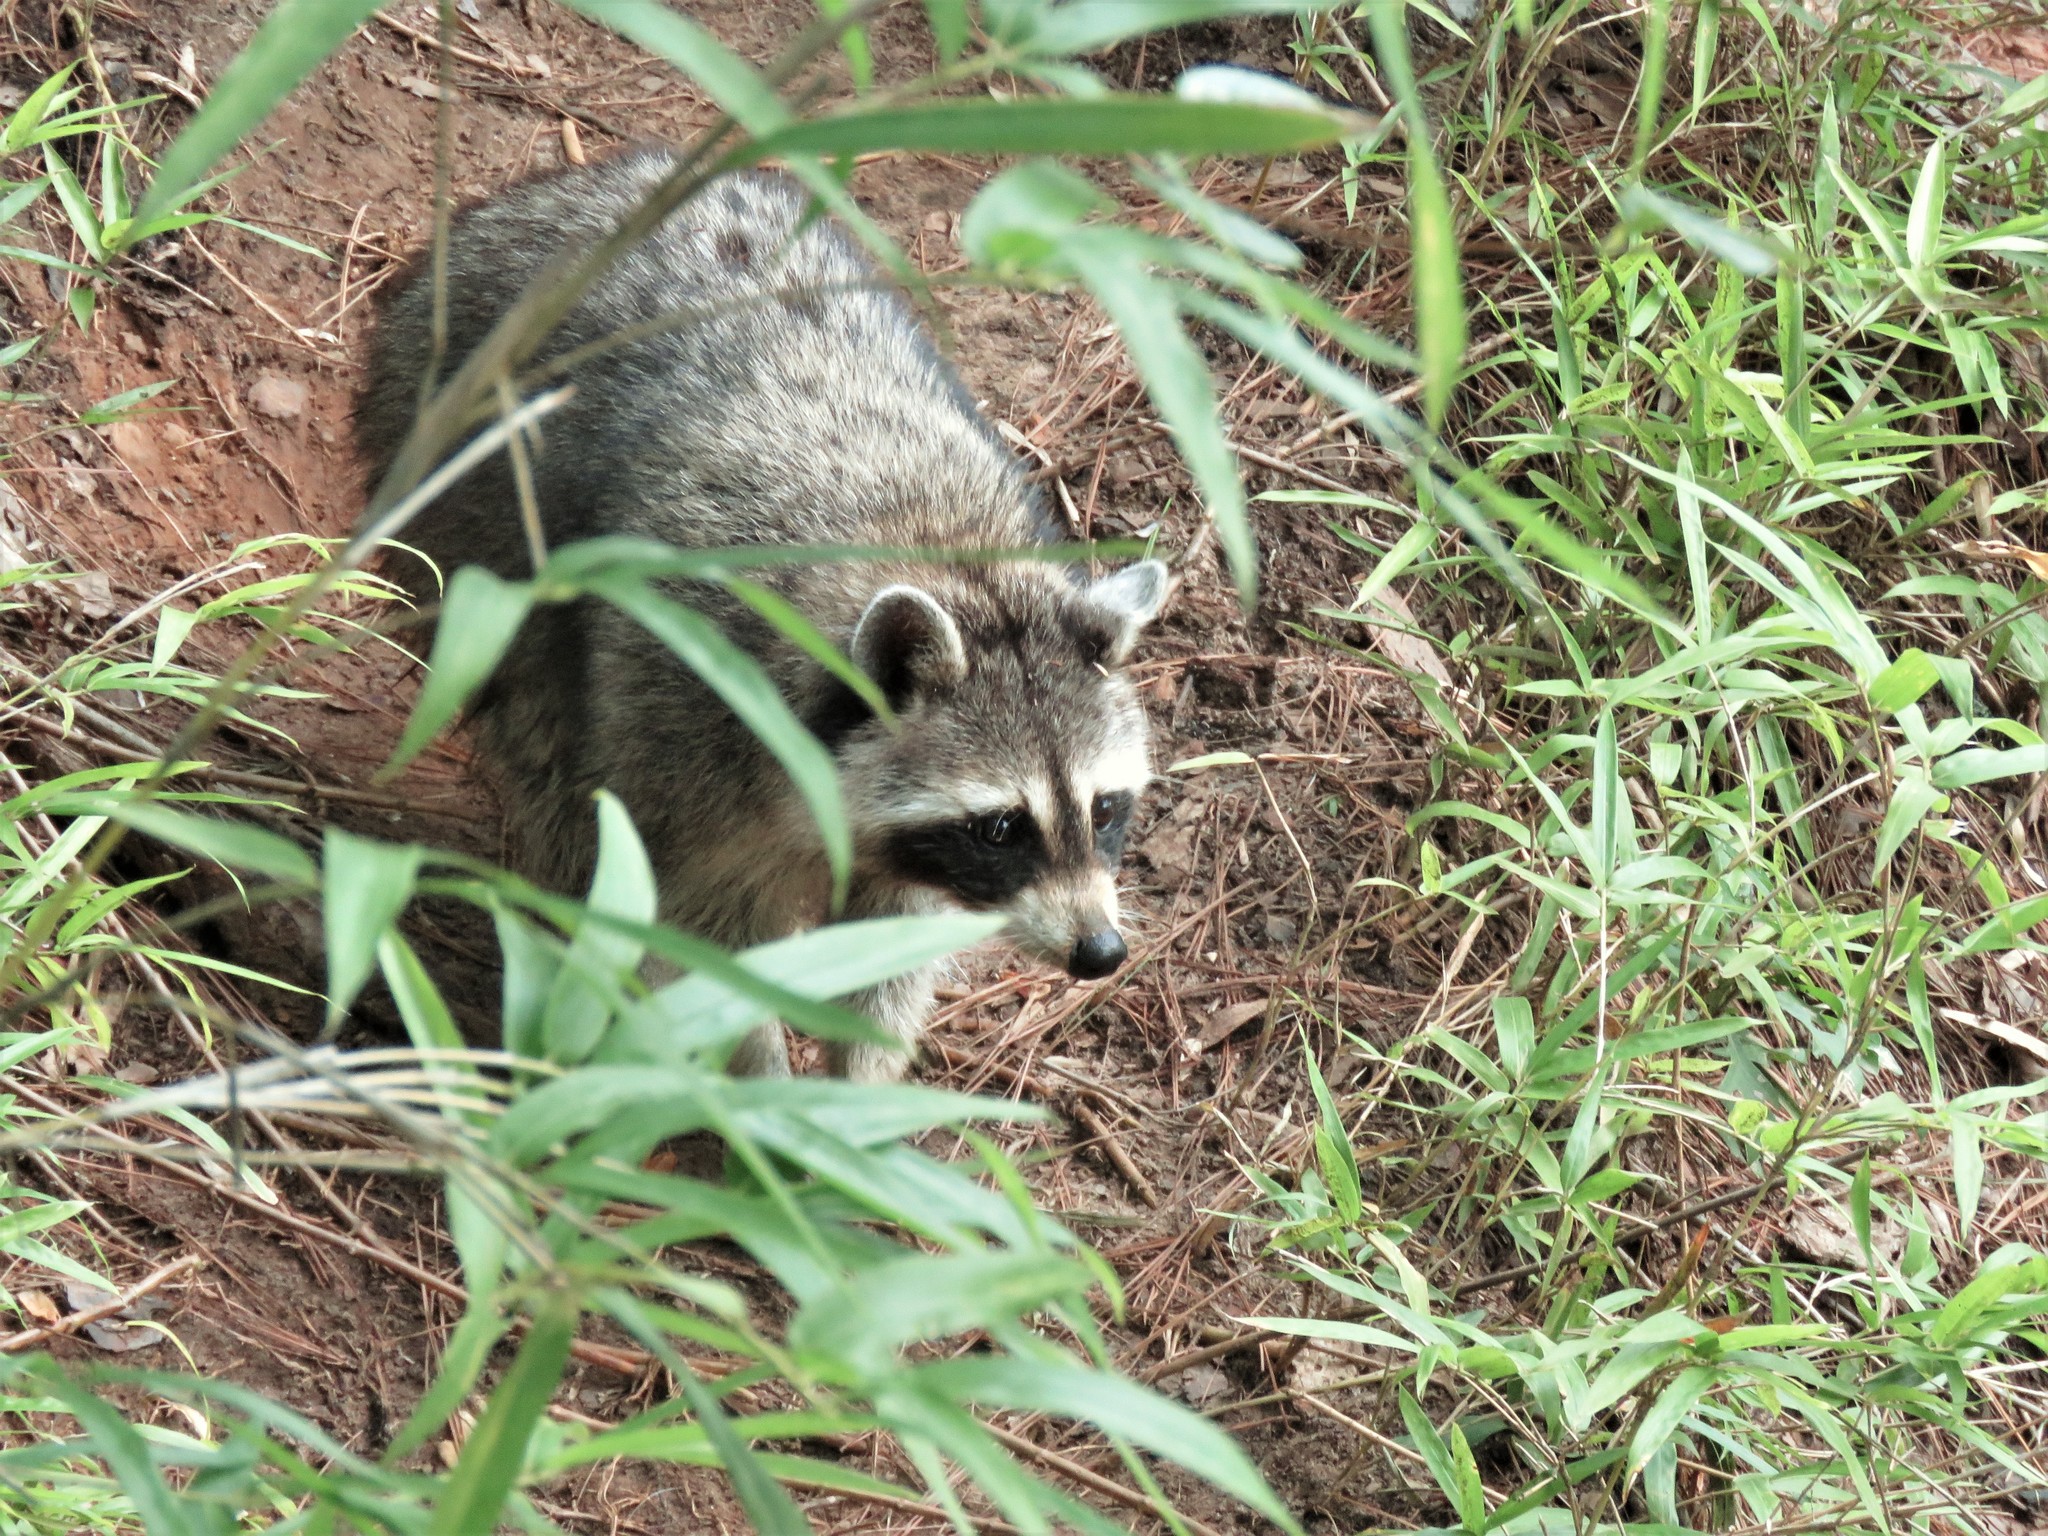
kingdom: Animalia
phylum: Chordata
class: Mammalia
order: Carnivora
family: Procyonidae
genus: Procyon
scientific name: Procyon lotor
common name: Raccoon
